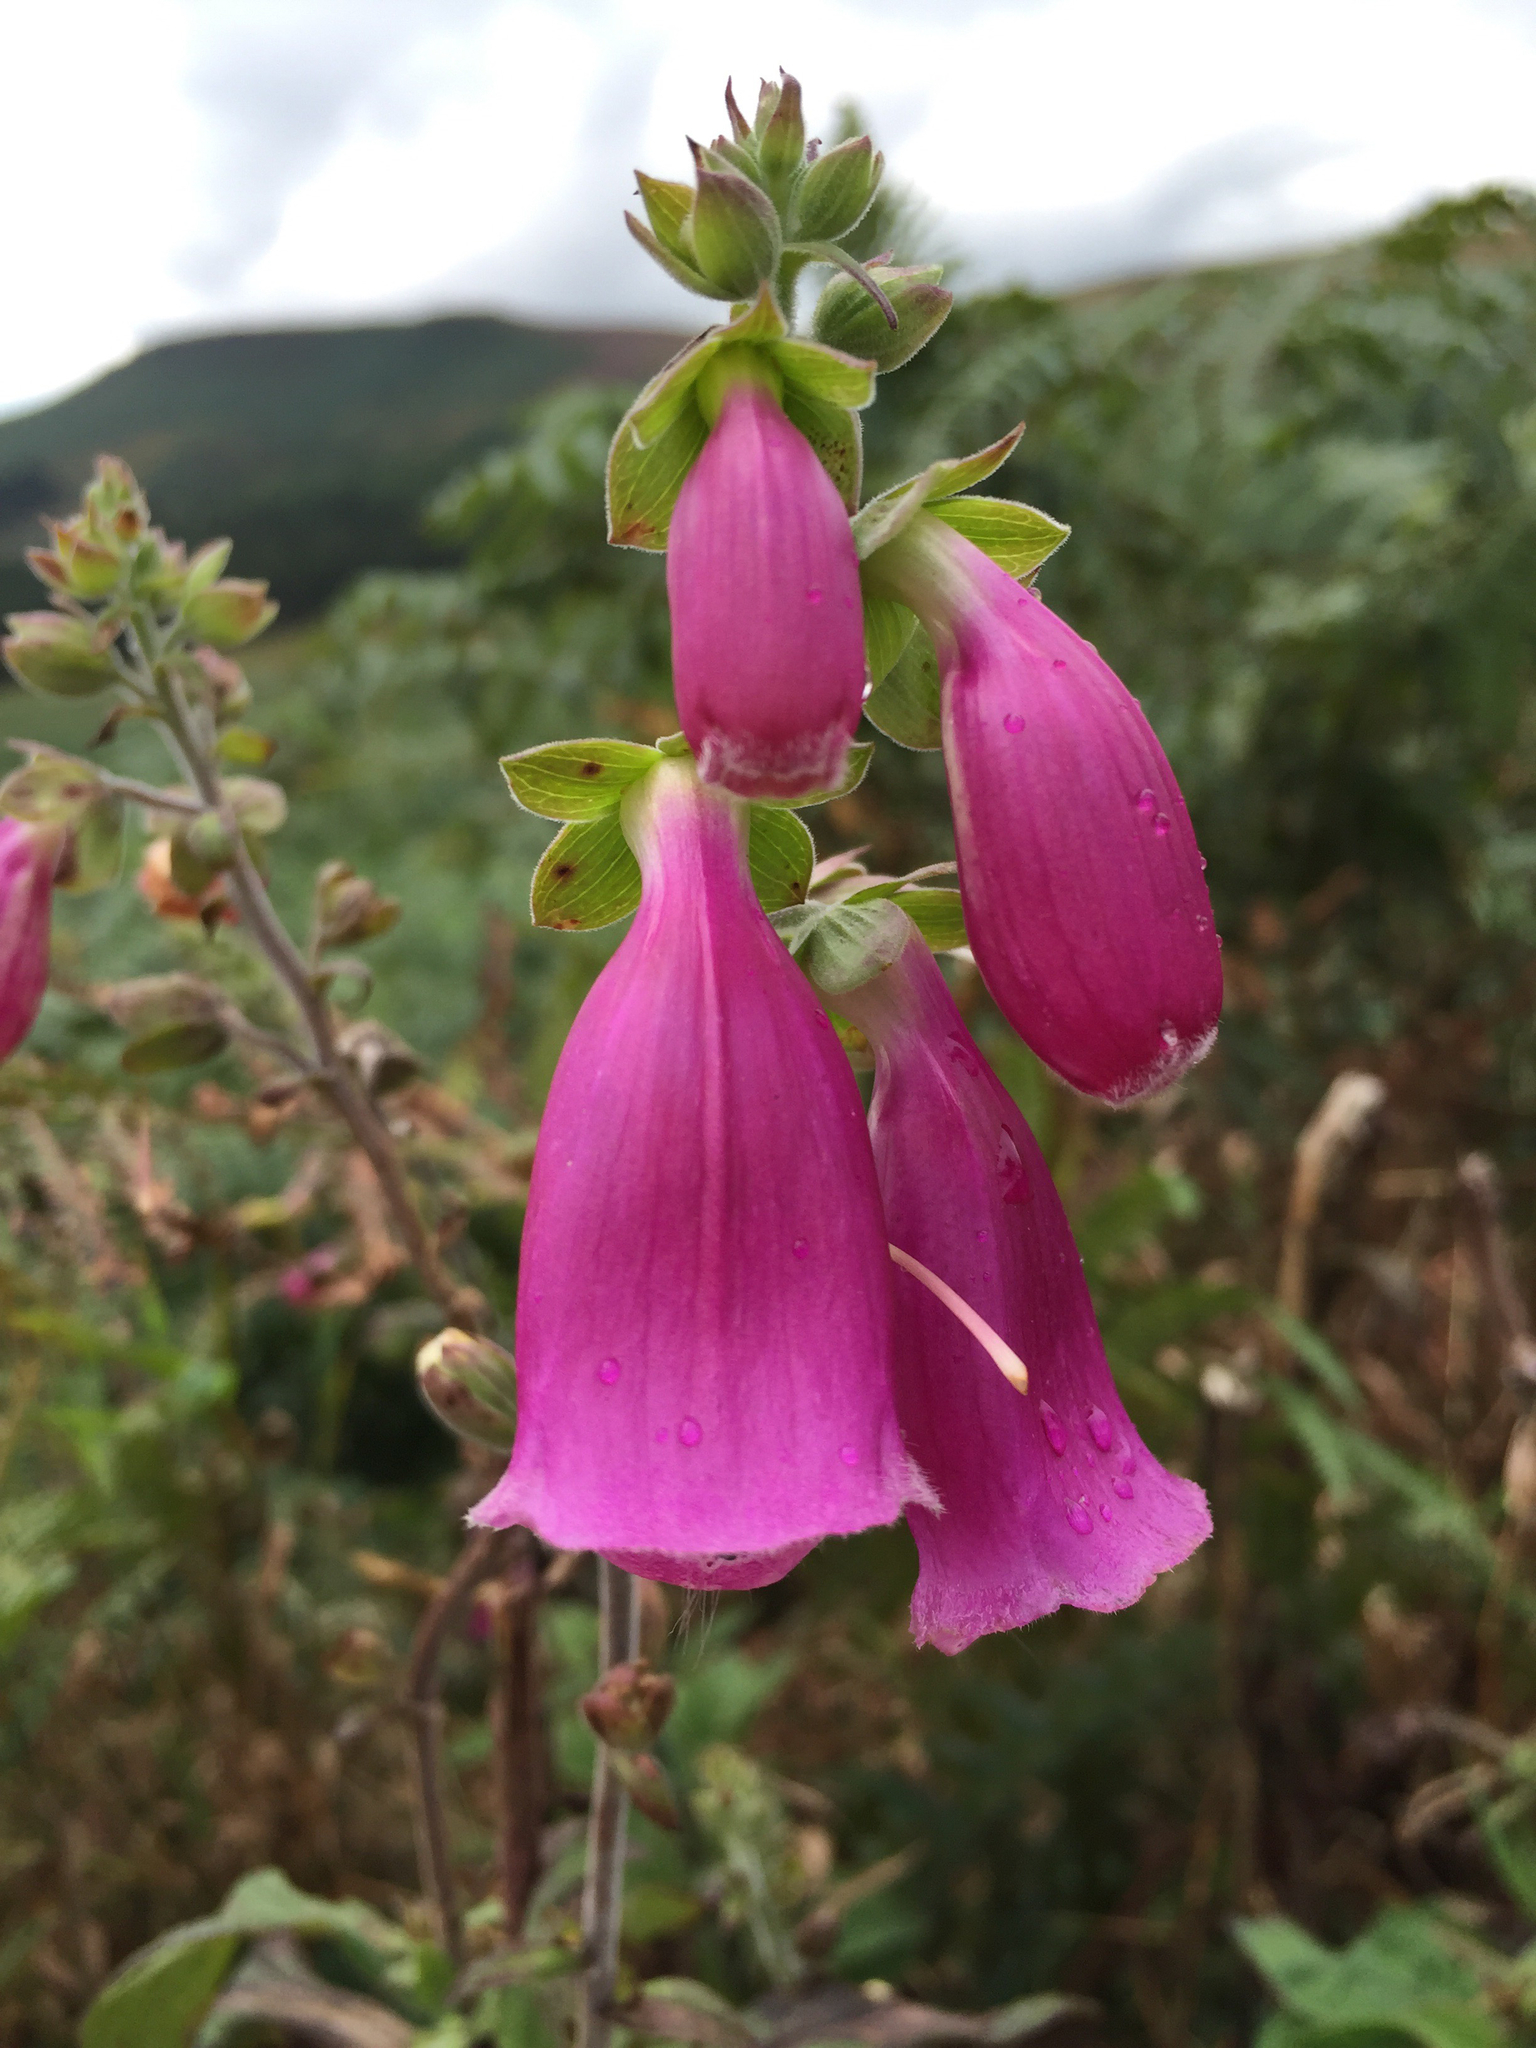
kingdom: Plantae
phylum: Tracheophyta
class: Magnoliopsida
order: Lamiales
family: Plantaginaceae
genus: Digitalis
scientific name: Digitalis purpurea
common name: Foxglove
